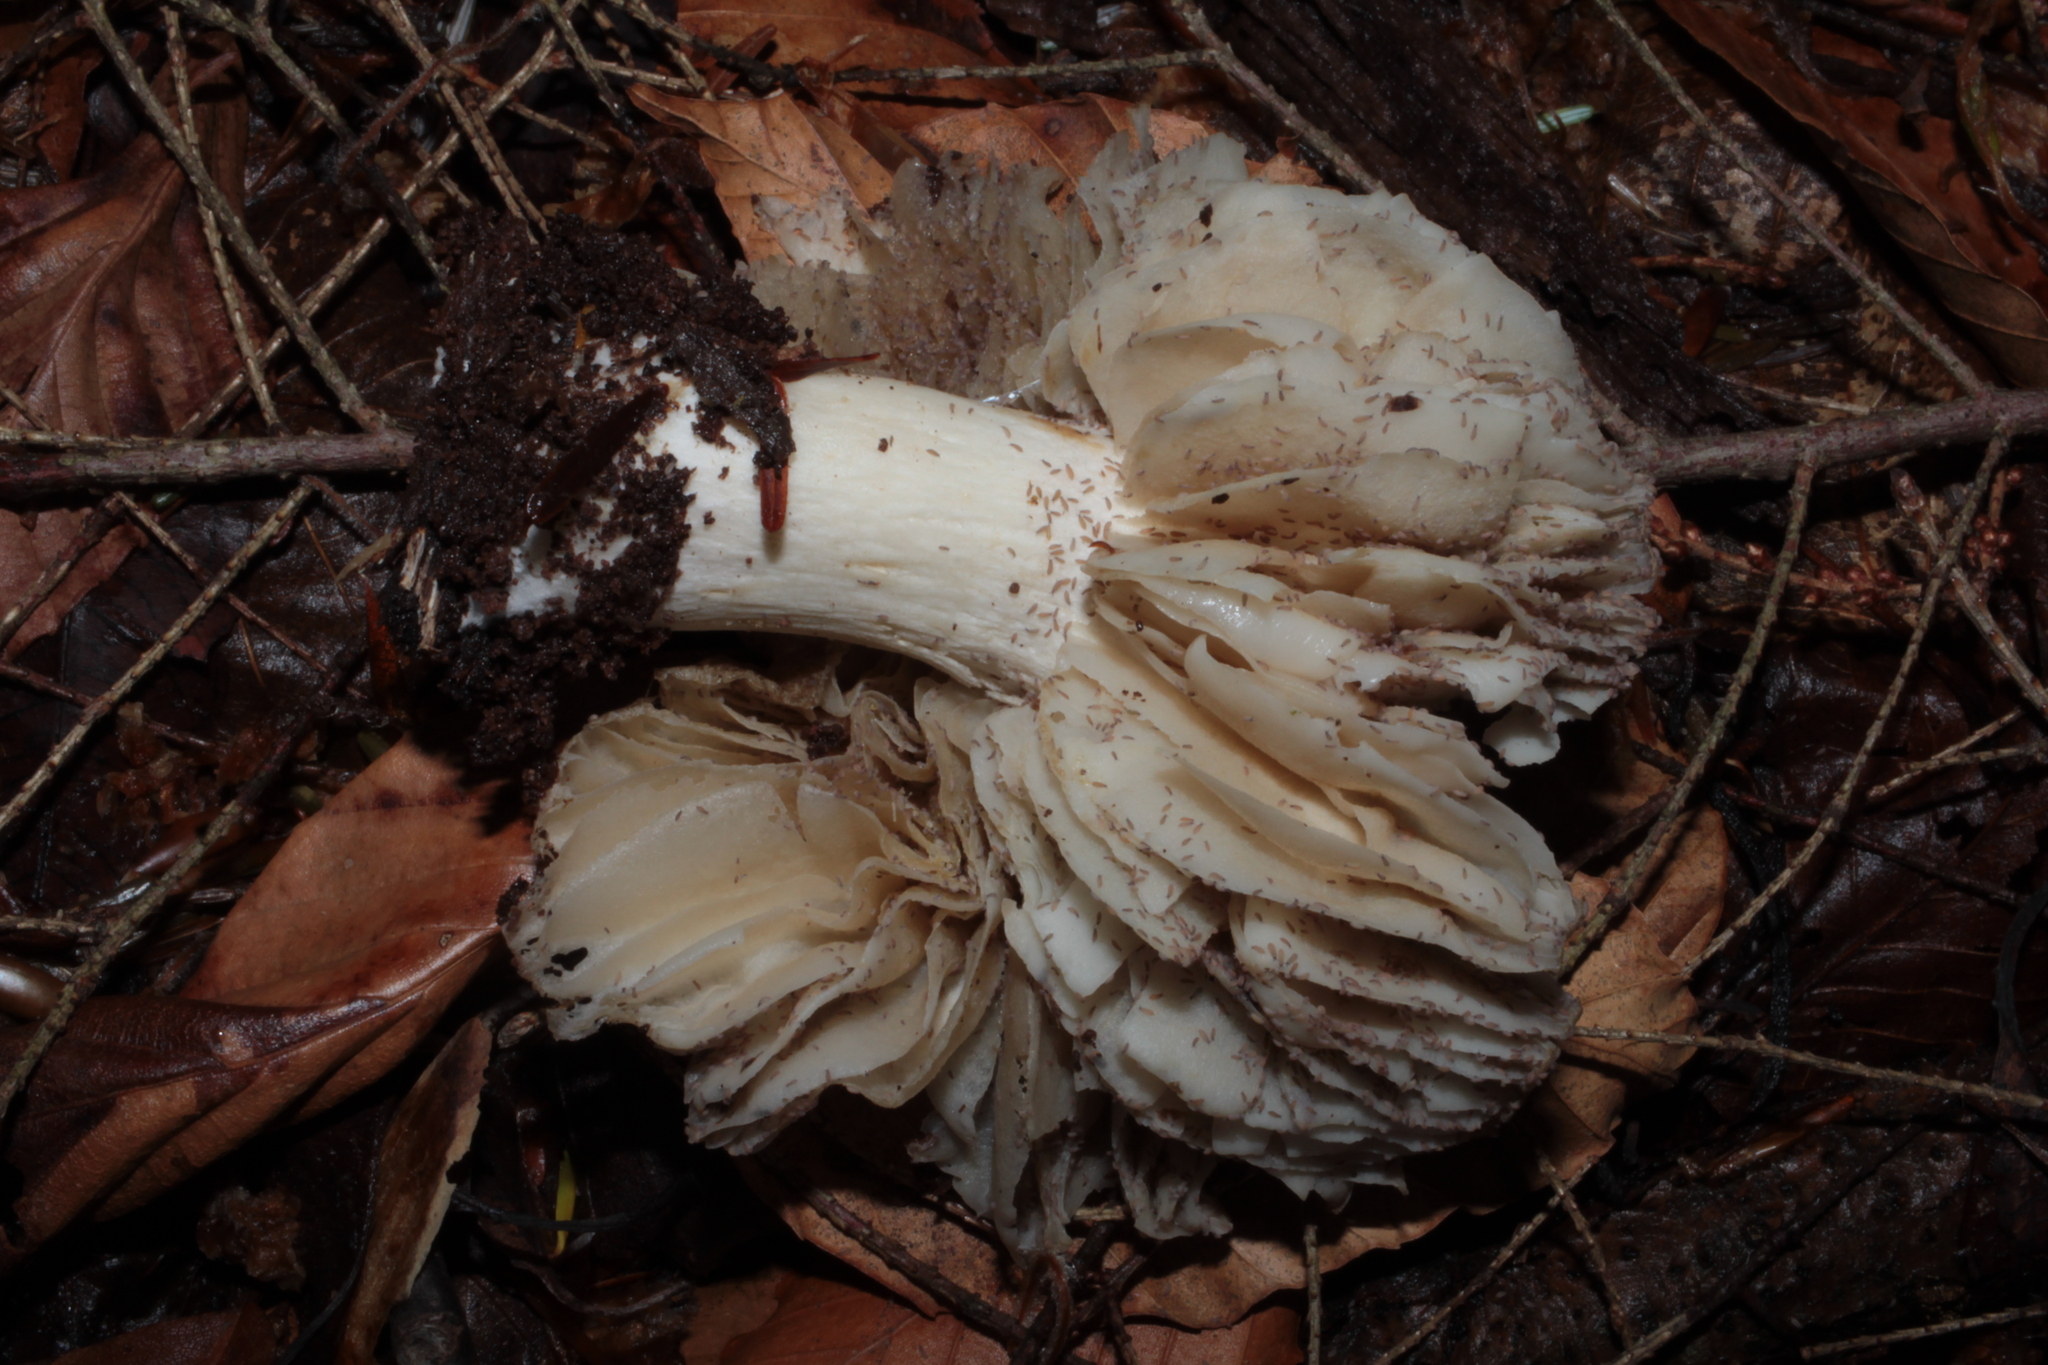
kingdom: Fungi
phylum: Basidiomycota
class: Agaricomycetes
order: Agaricales
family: Tricholomataceae
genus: Megacollybia
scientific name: Megacollybia rodmanii
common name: Eastern american platterful mushroom
